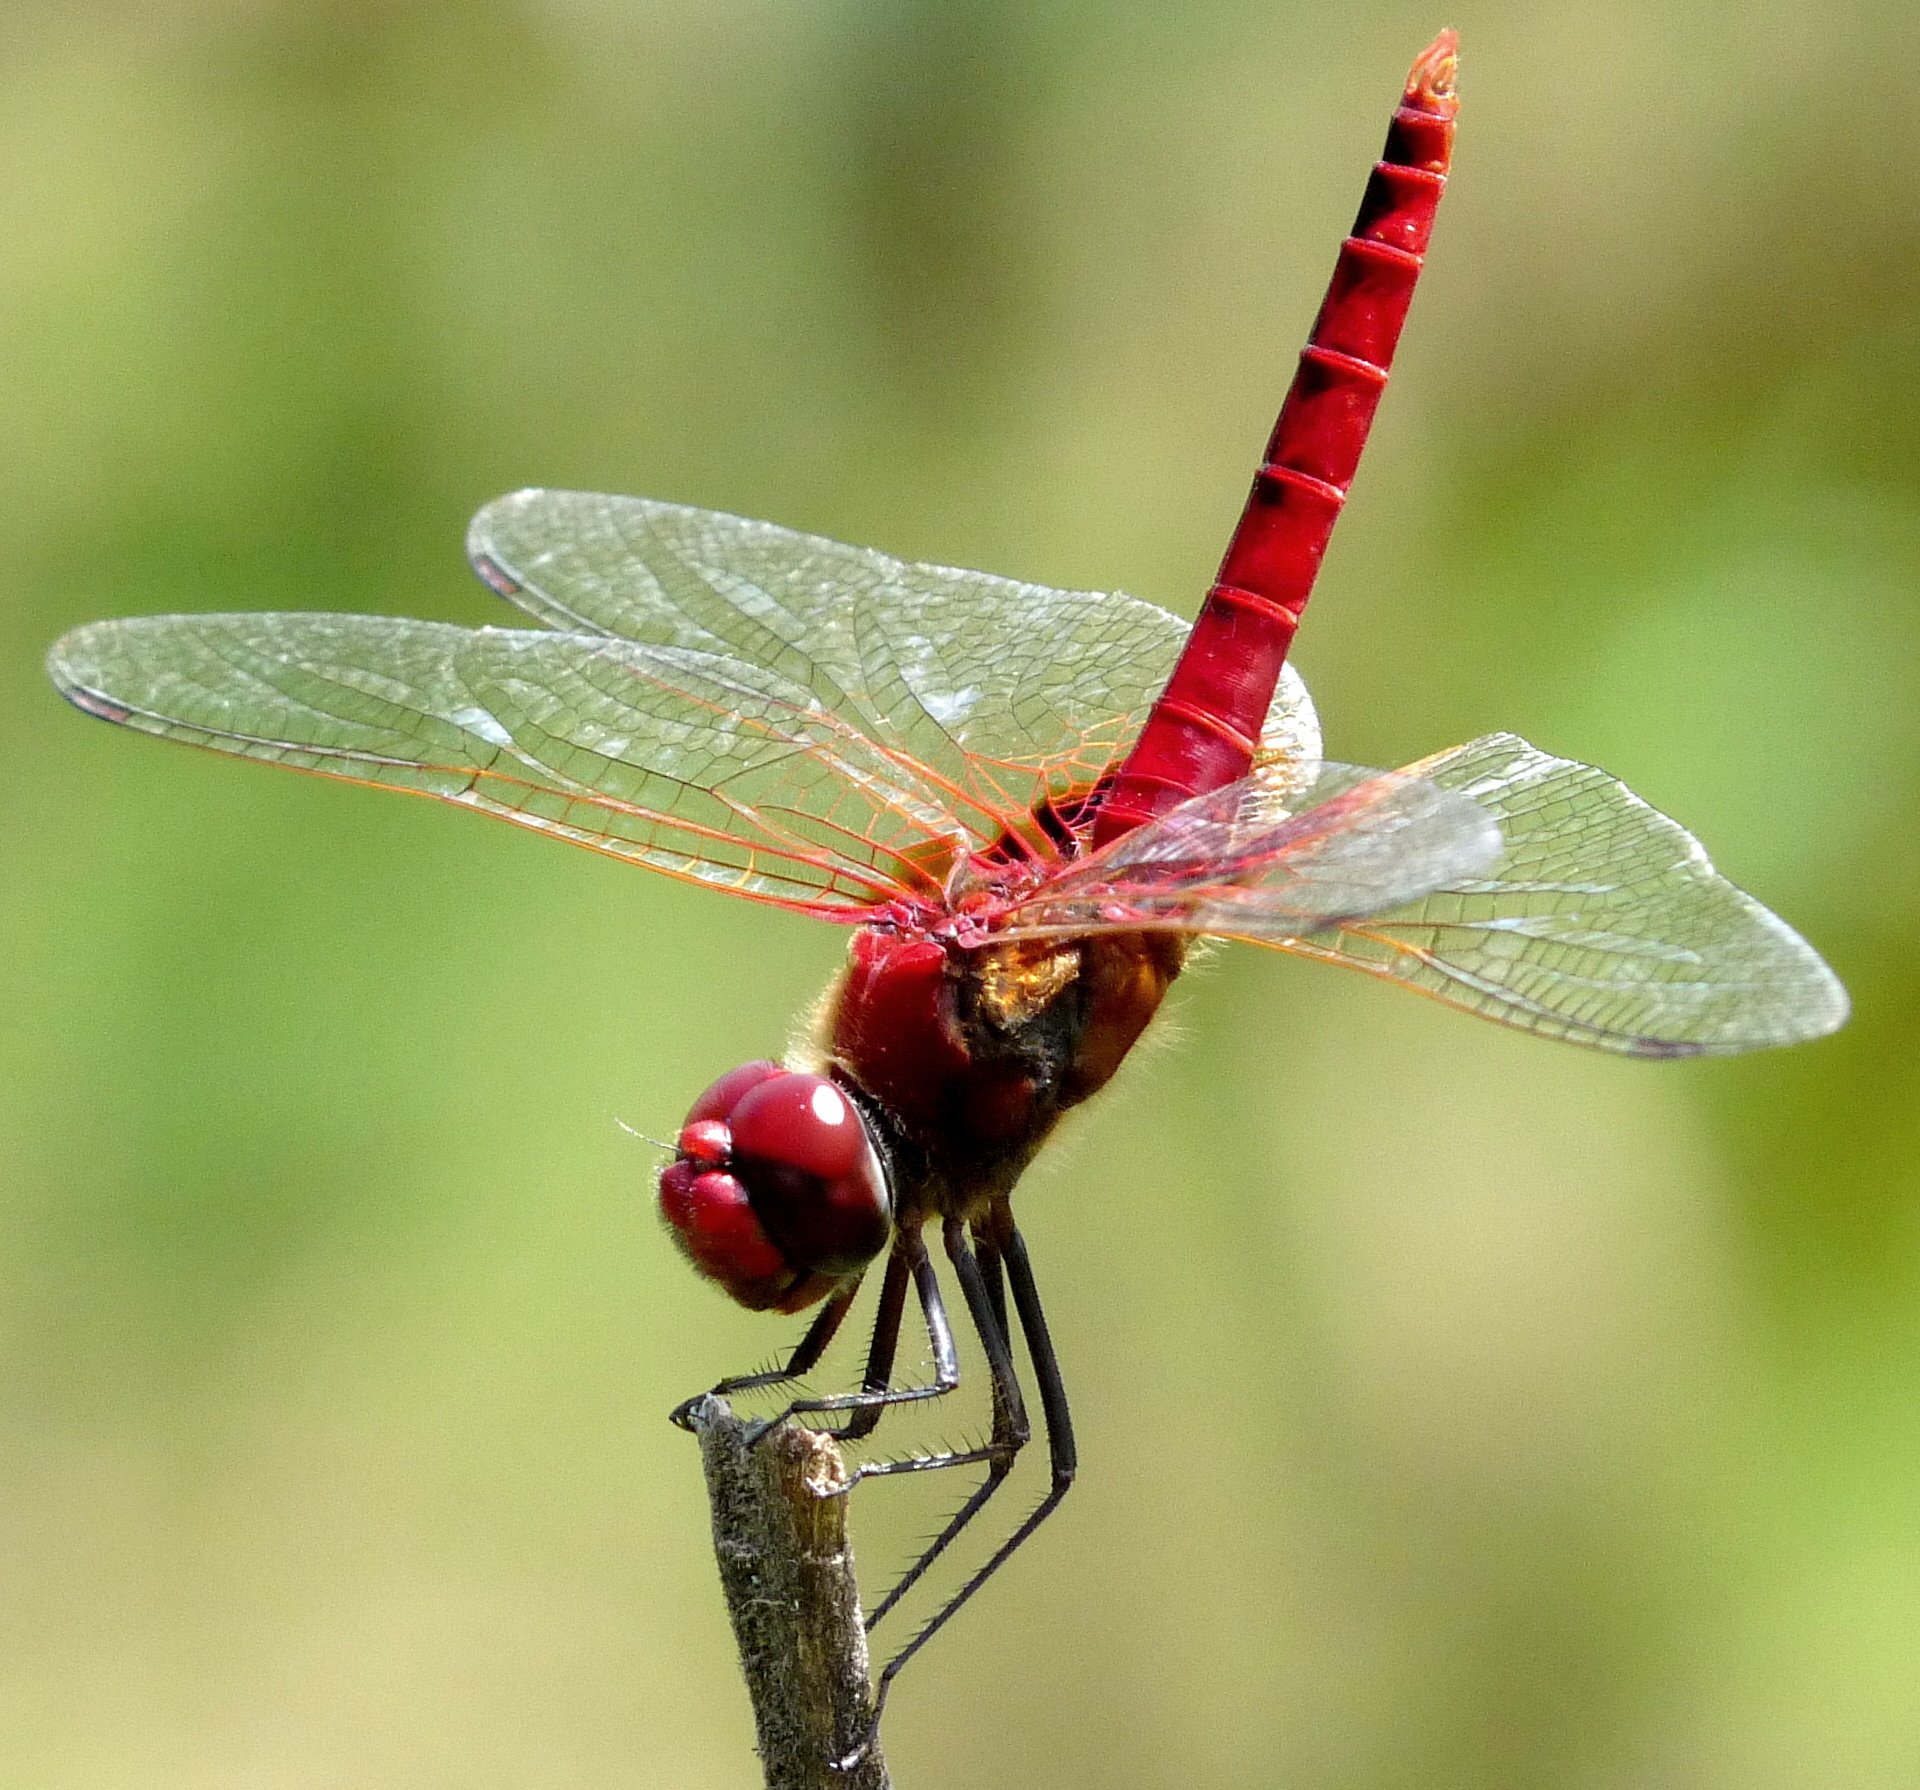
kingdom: Animalia
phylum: Arthropoda
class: Insecta
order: Odonata
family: Libellulidae
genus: Urothemis
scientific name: Urothemis signata
